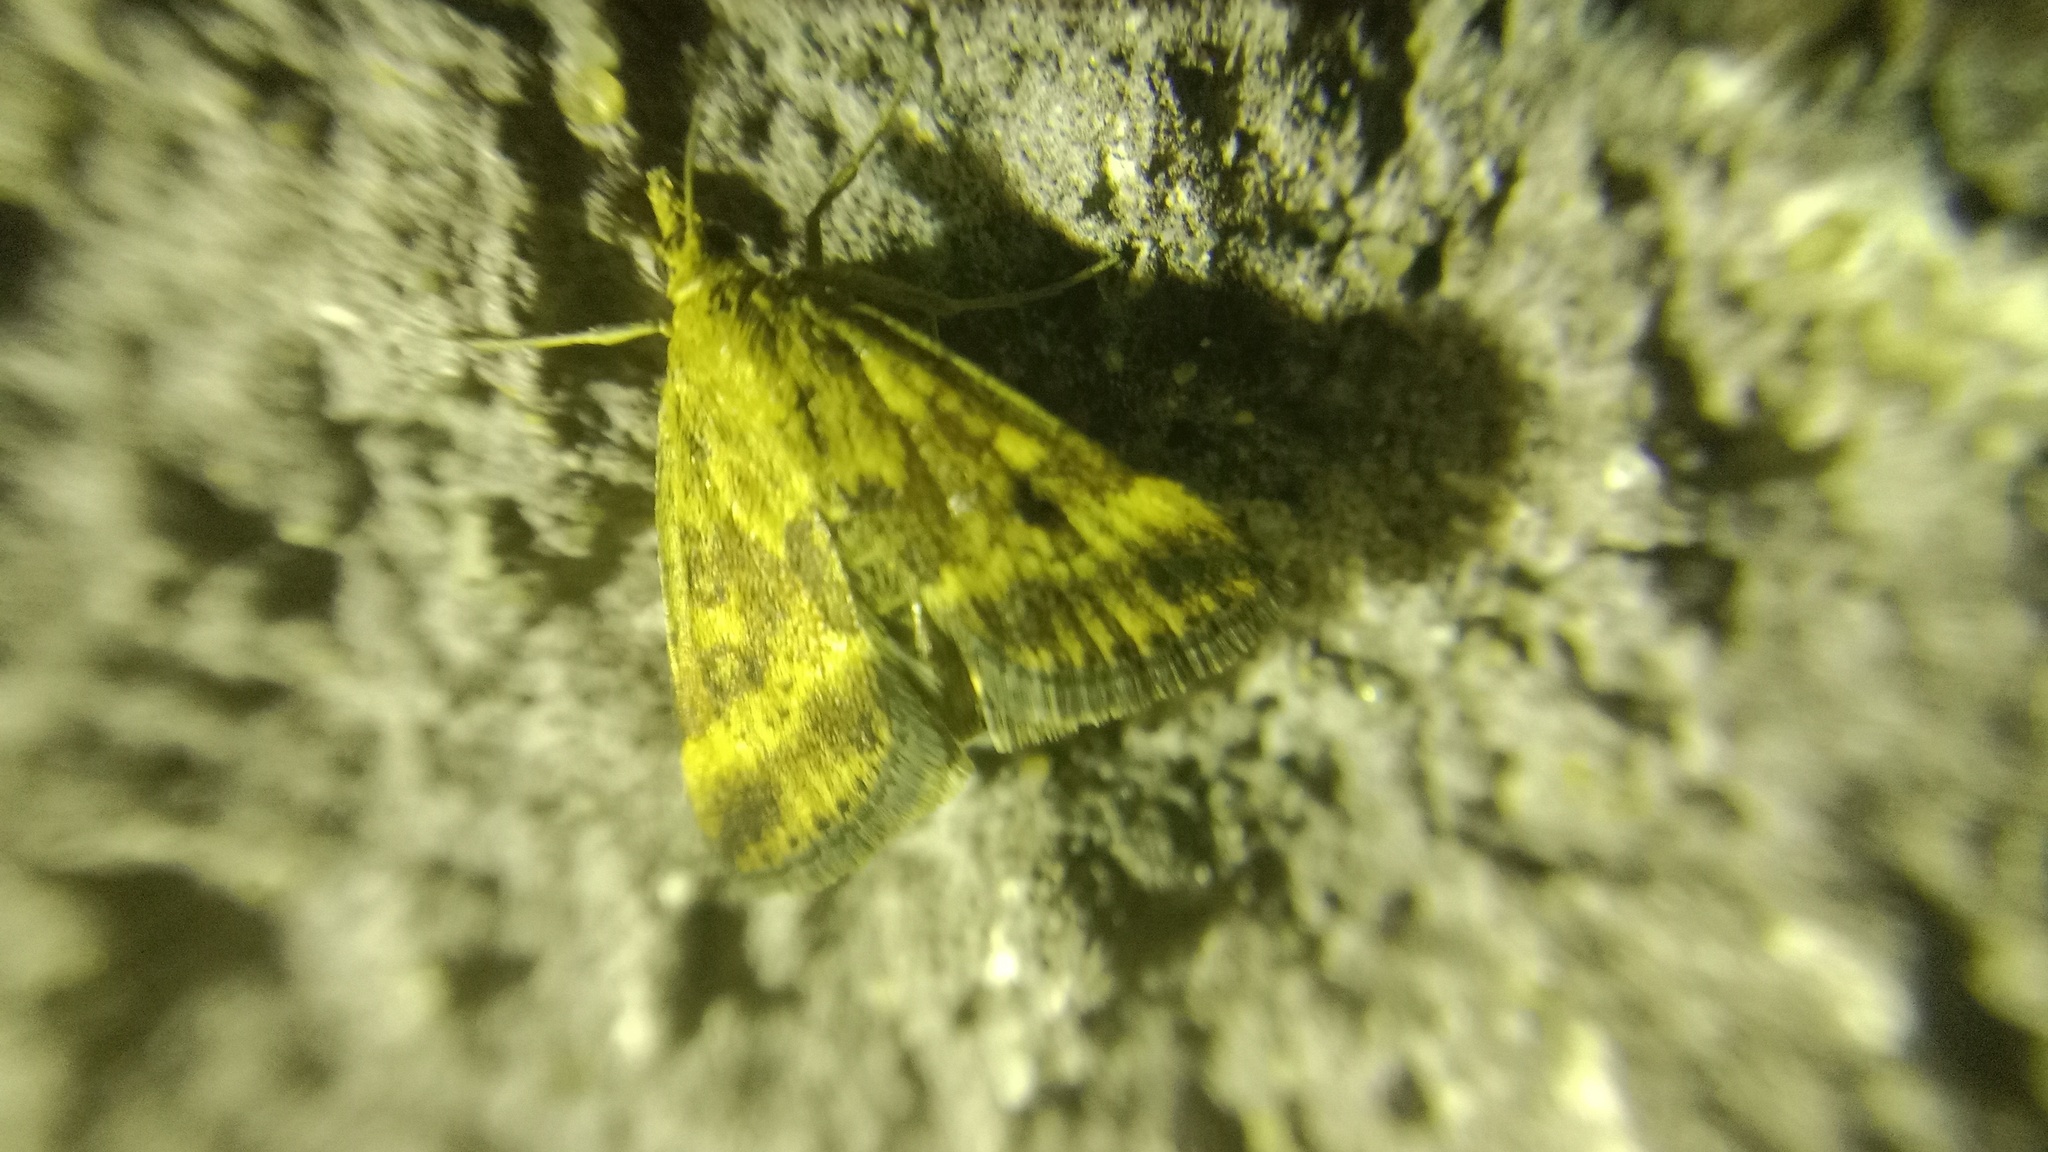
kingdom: Animalia
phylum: Arthropoda
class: Insecta
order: Lepidoptera
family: Crambidae
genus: Pyrausta
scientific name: Pyrausta despicata
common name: Straw-barred pearl
